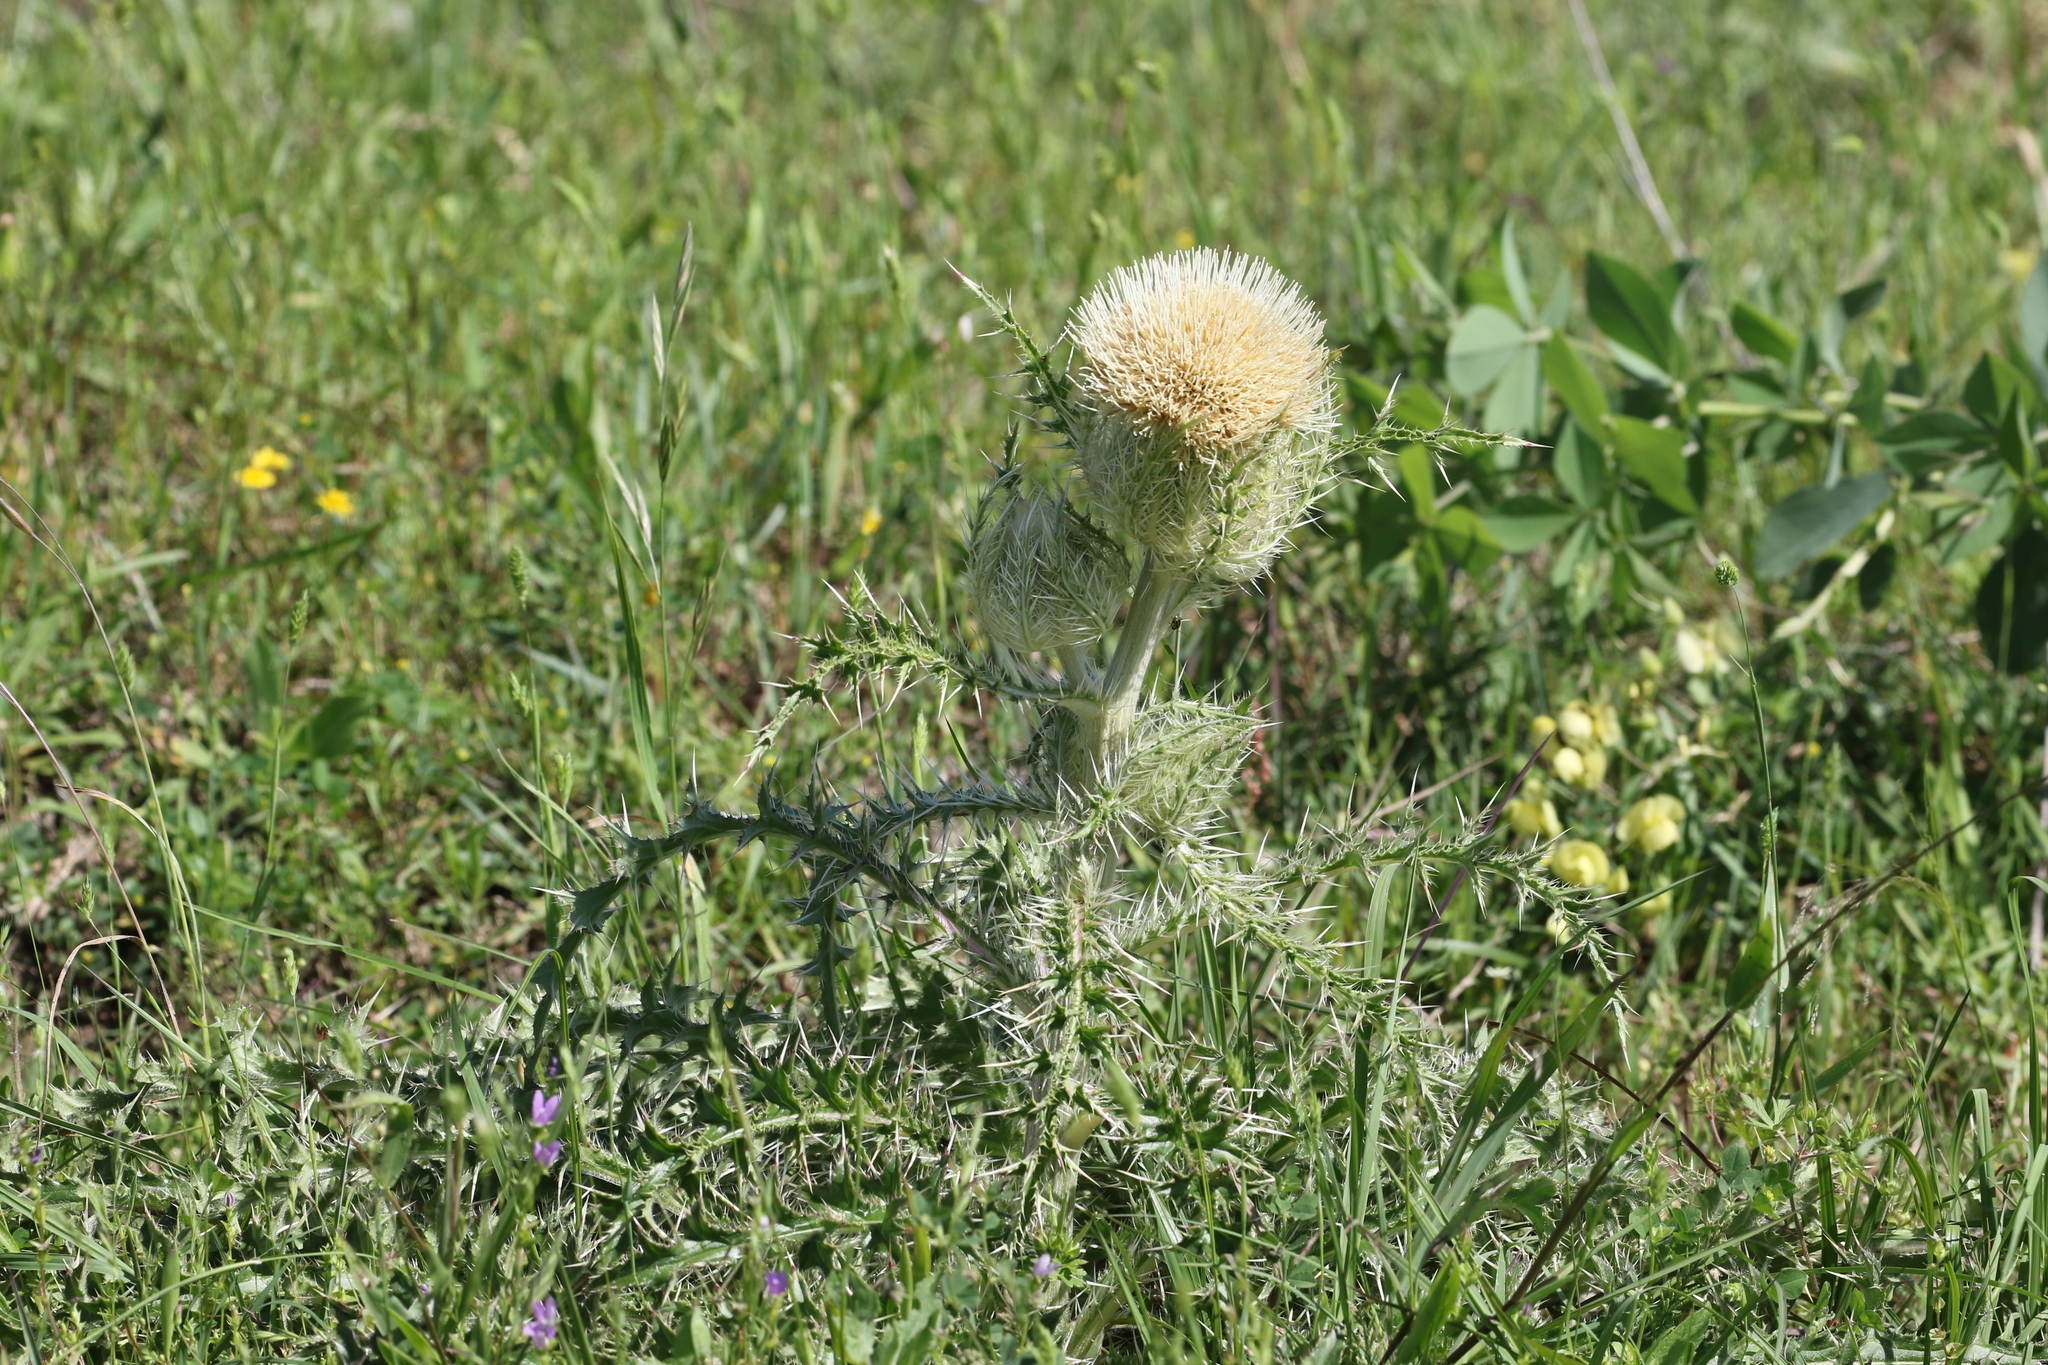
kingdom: Plantae
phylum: Tracheophyta
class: Magnoliopsida
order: Asterales
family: Asteraceae
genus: Cirsium
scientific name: Cirsium horridulum
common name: Bristly thistle
